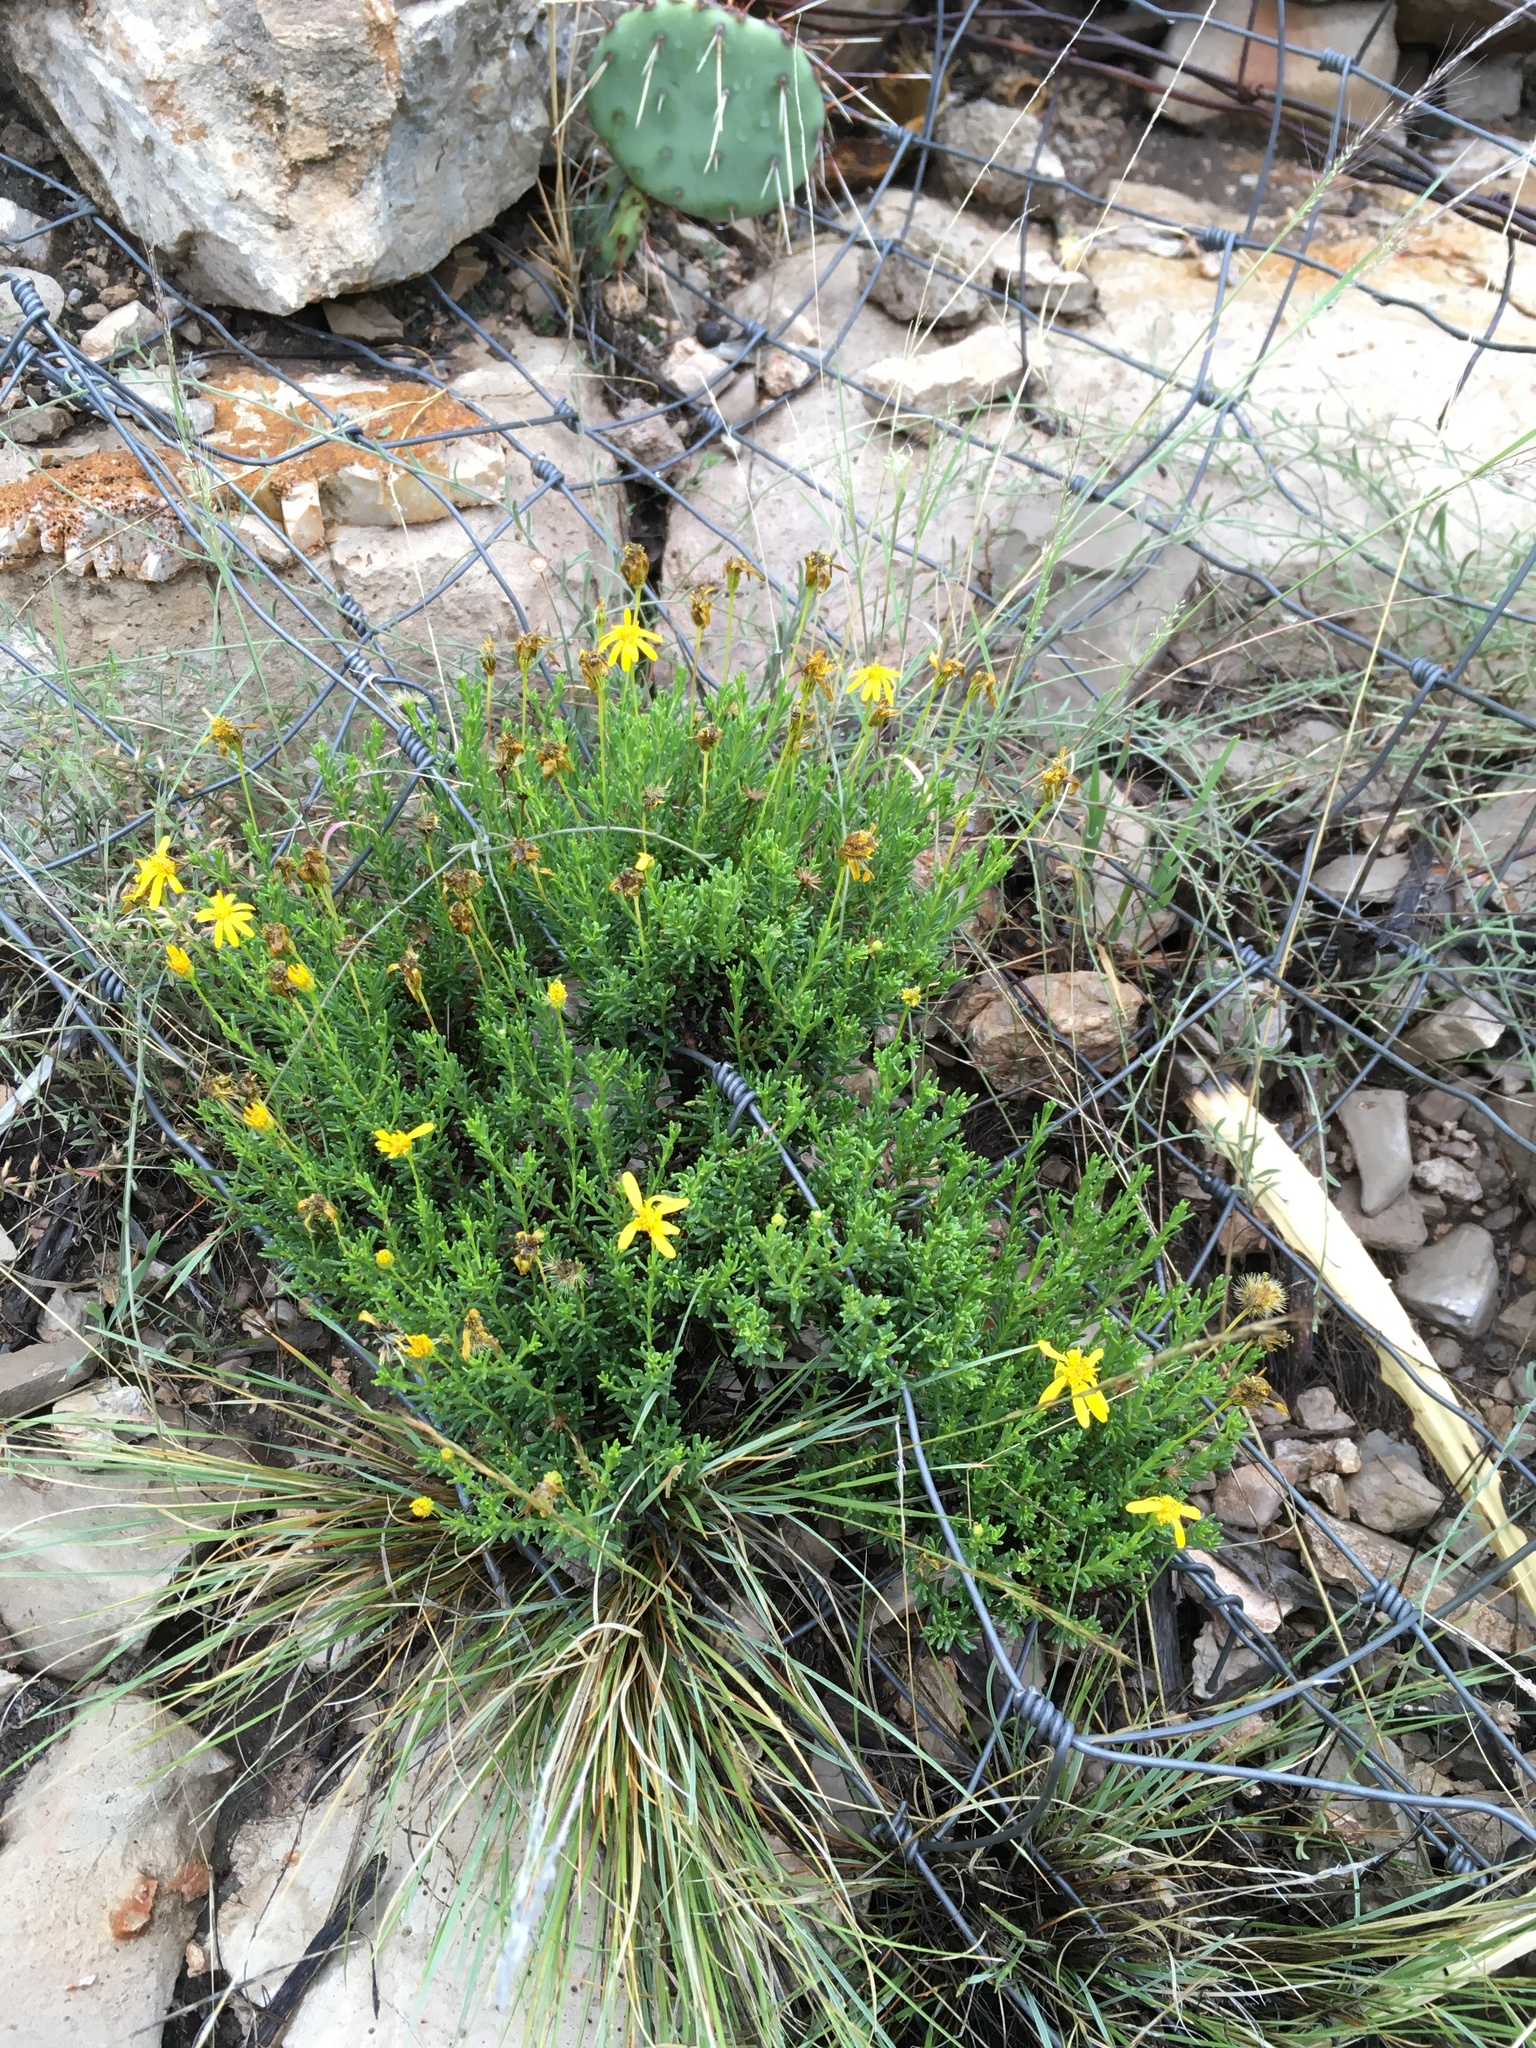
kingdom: Plantae
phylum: Tracheophyta
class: Magnoliopsida
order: Asterales
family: Asteraceae
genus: Chrysactinia
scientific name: Chrysactinia mexicana
